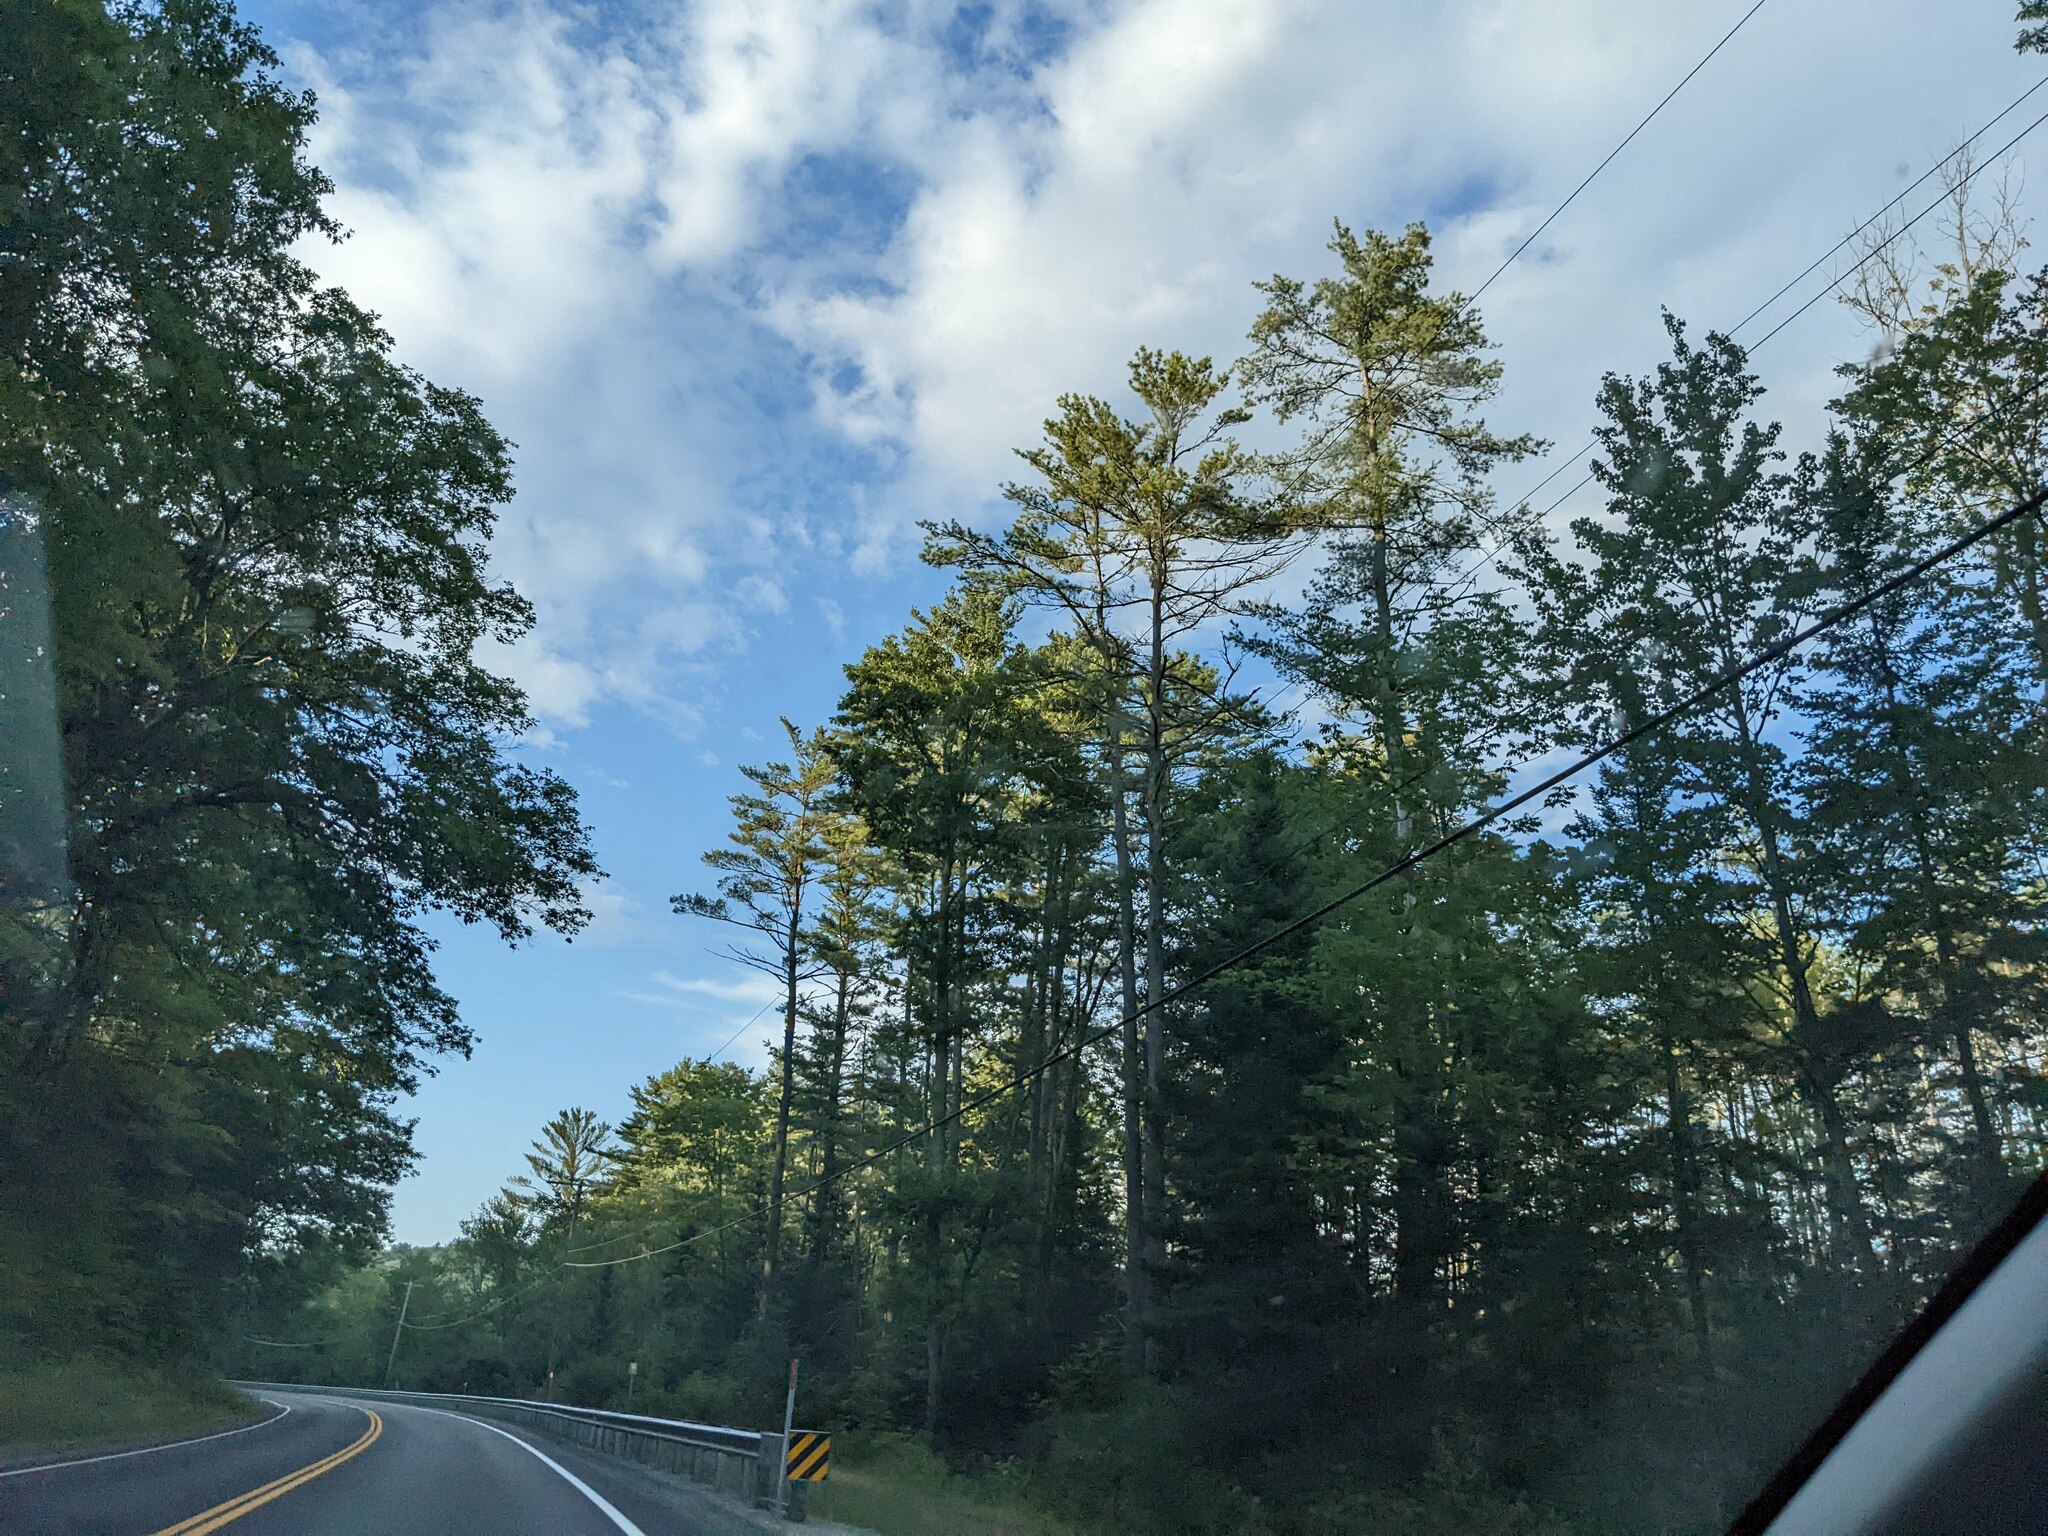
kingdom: Plantae
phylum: Tracheophyta
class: Pinopsida
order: Pinales
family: Pinaceae
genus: Pinus
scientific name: Pinus strobus
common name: Weymouth pine
